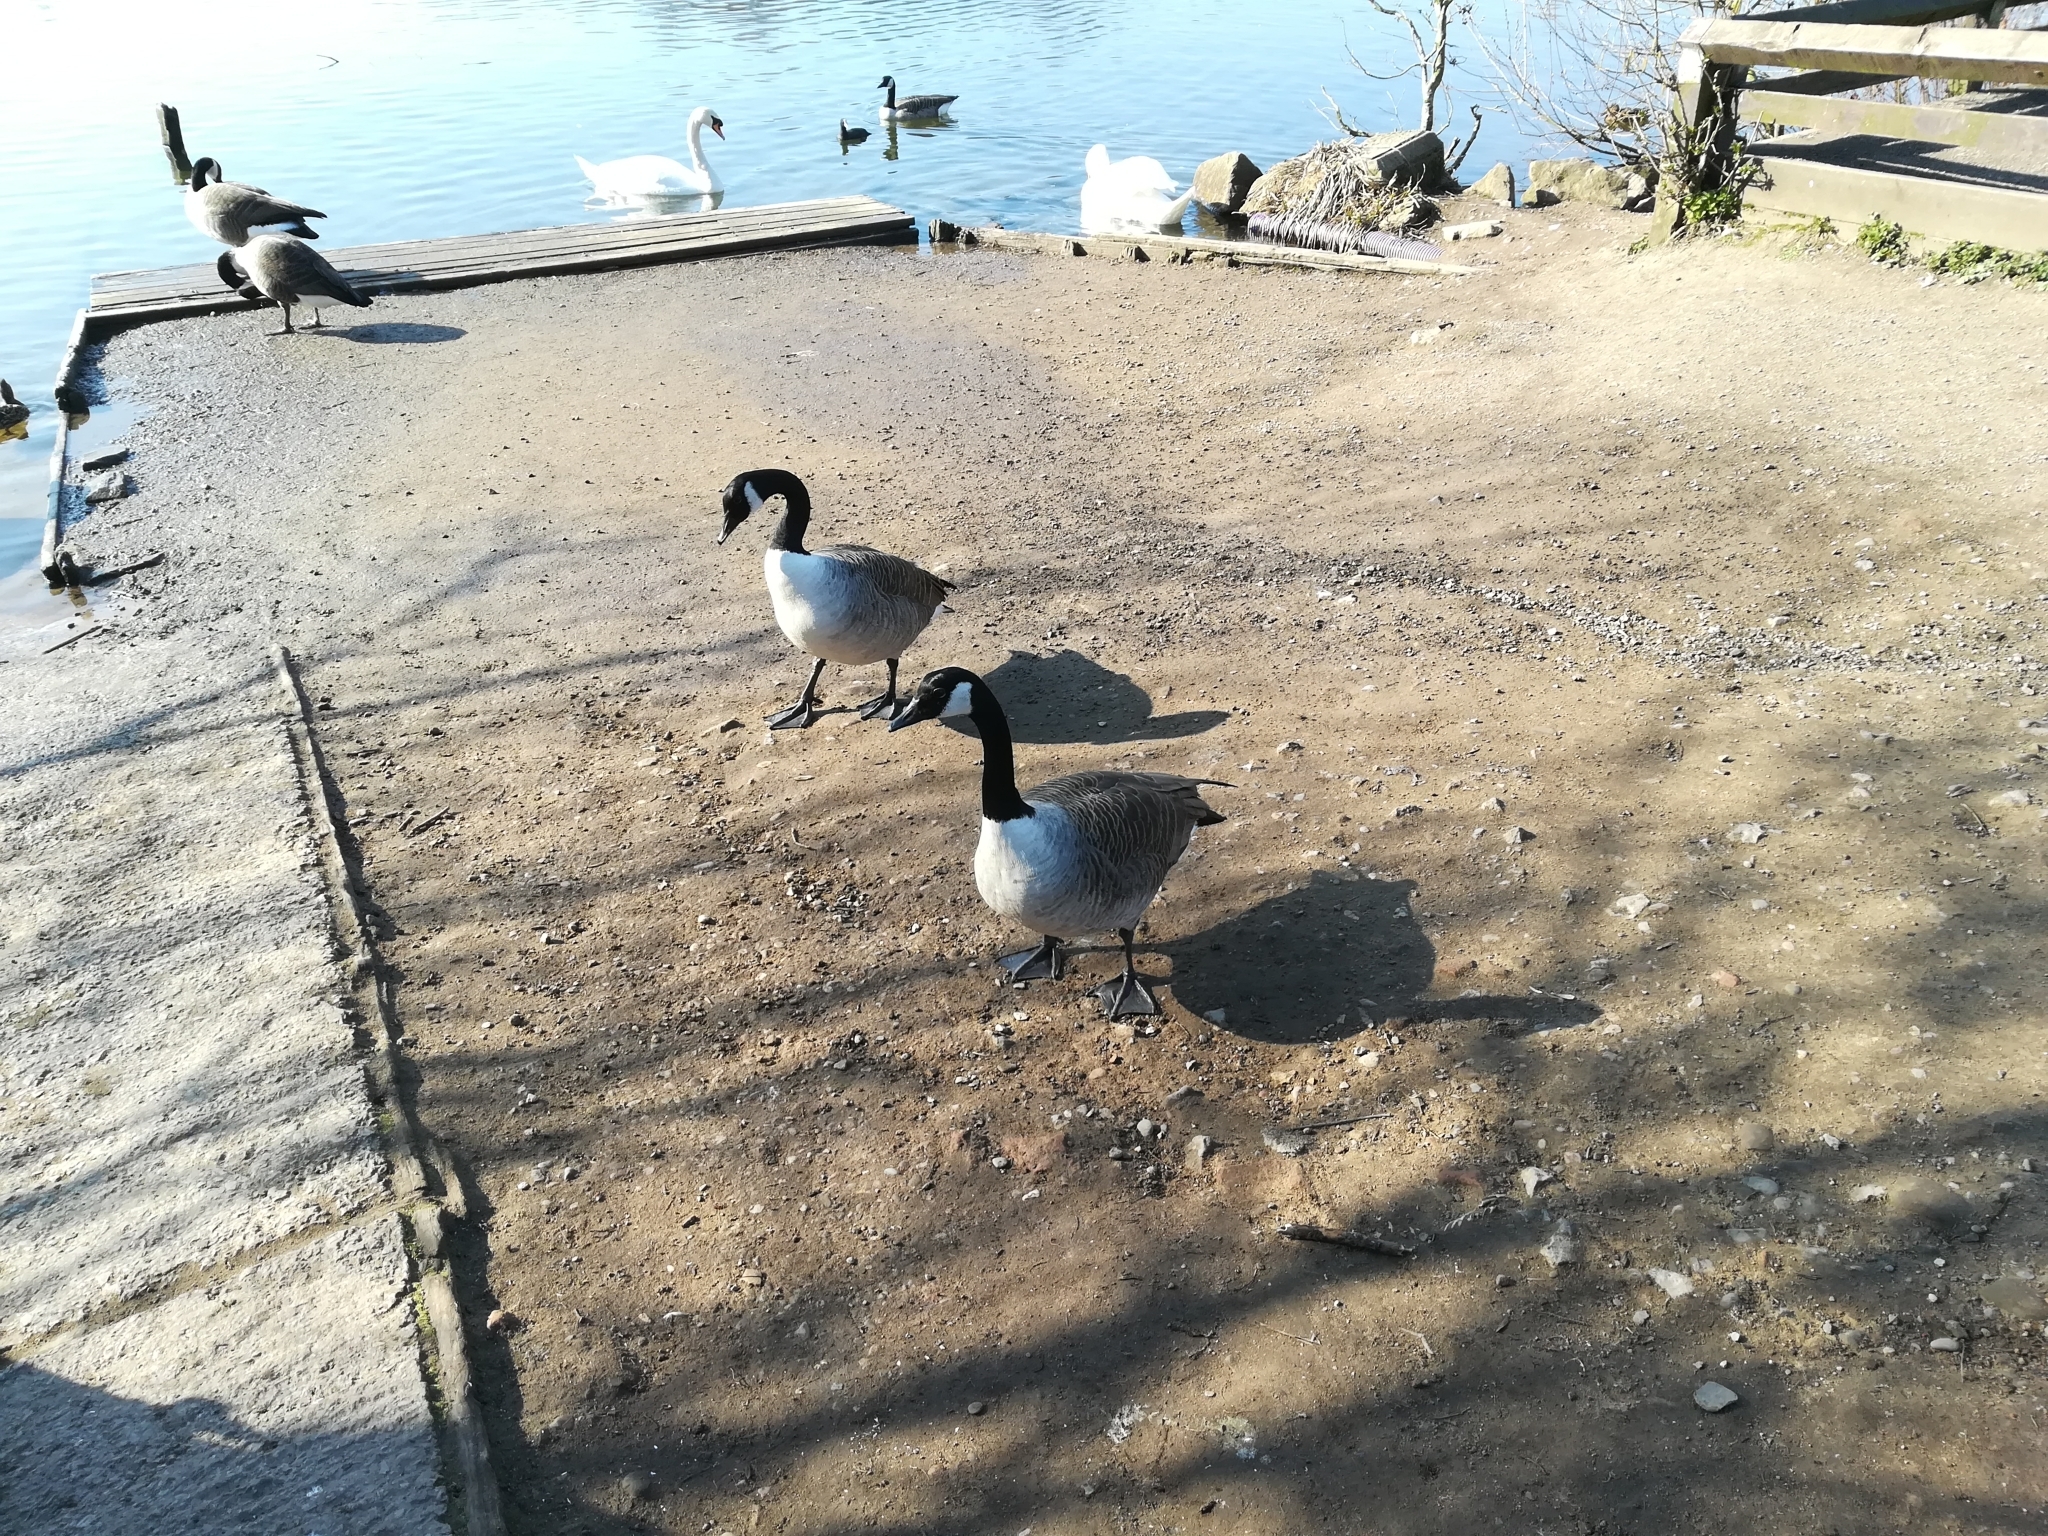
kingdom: Animalia
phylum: Chordata
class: Aves
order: Anseriformes
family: Anatidae
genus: Branta
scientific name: Branta canadensis
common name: Canada goose
